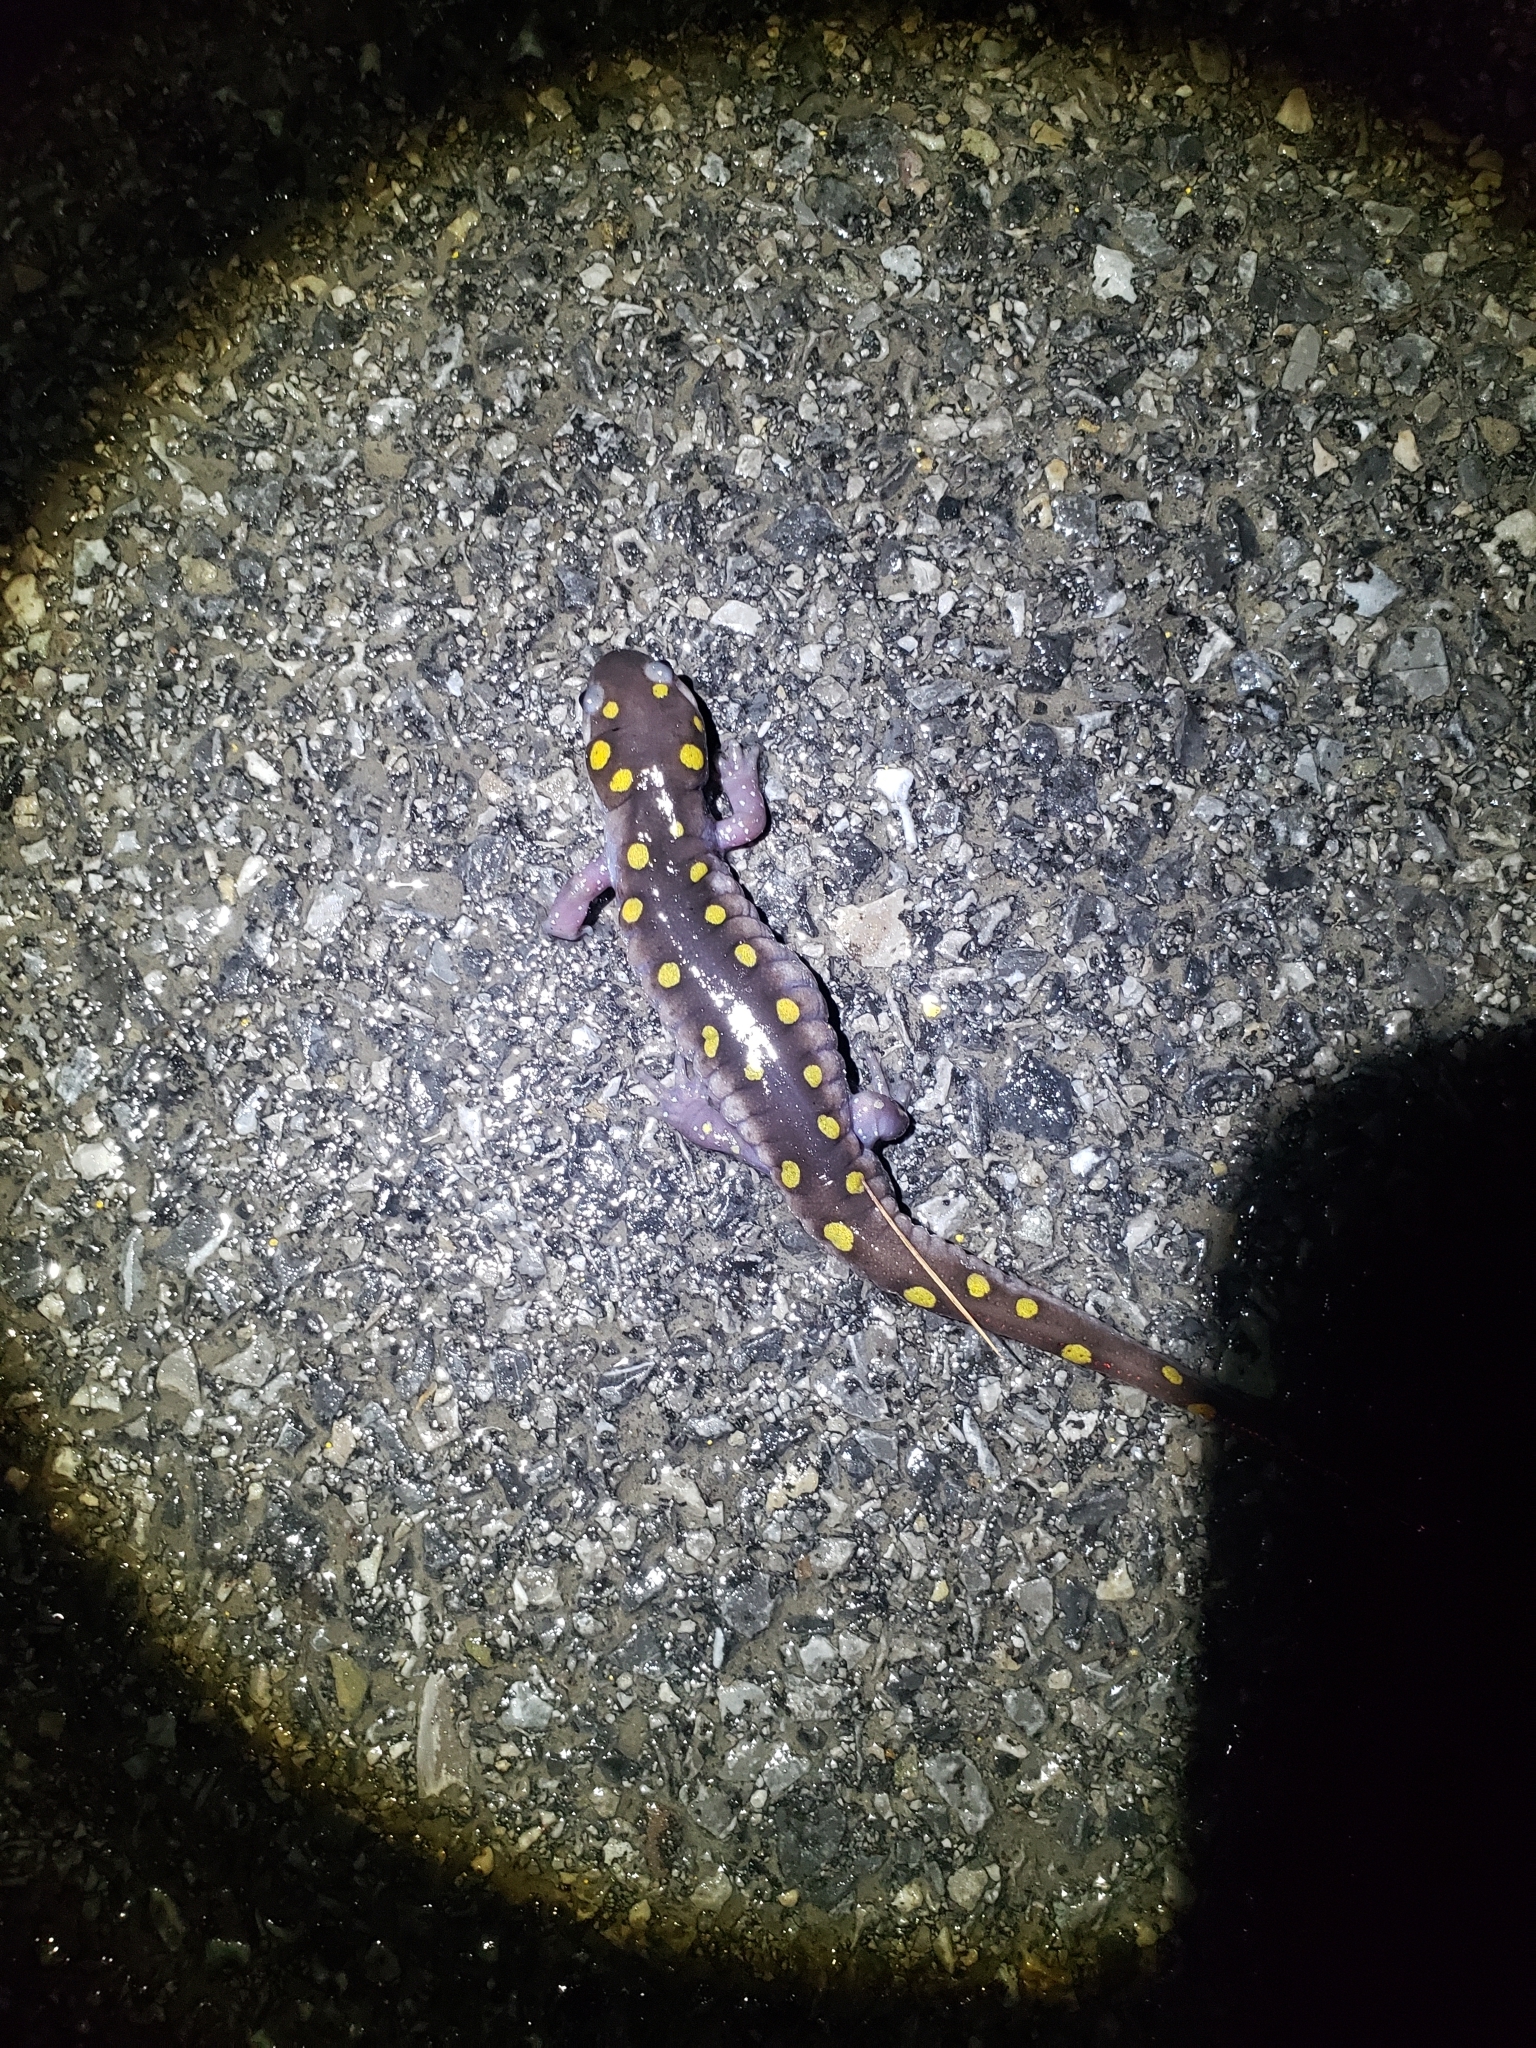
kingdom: Animalia
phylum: Chordata
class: Amphibia
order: Caudata
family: Ambystomatidae
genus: Ambystoma
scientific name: Ambystoma maculatum
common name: Spotted salamander
